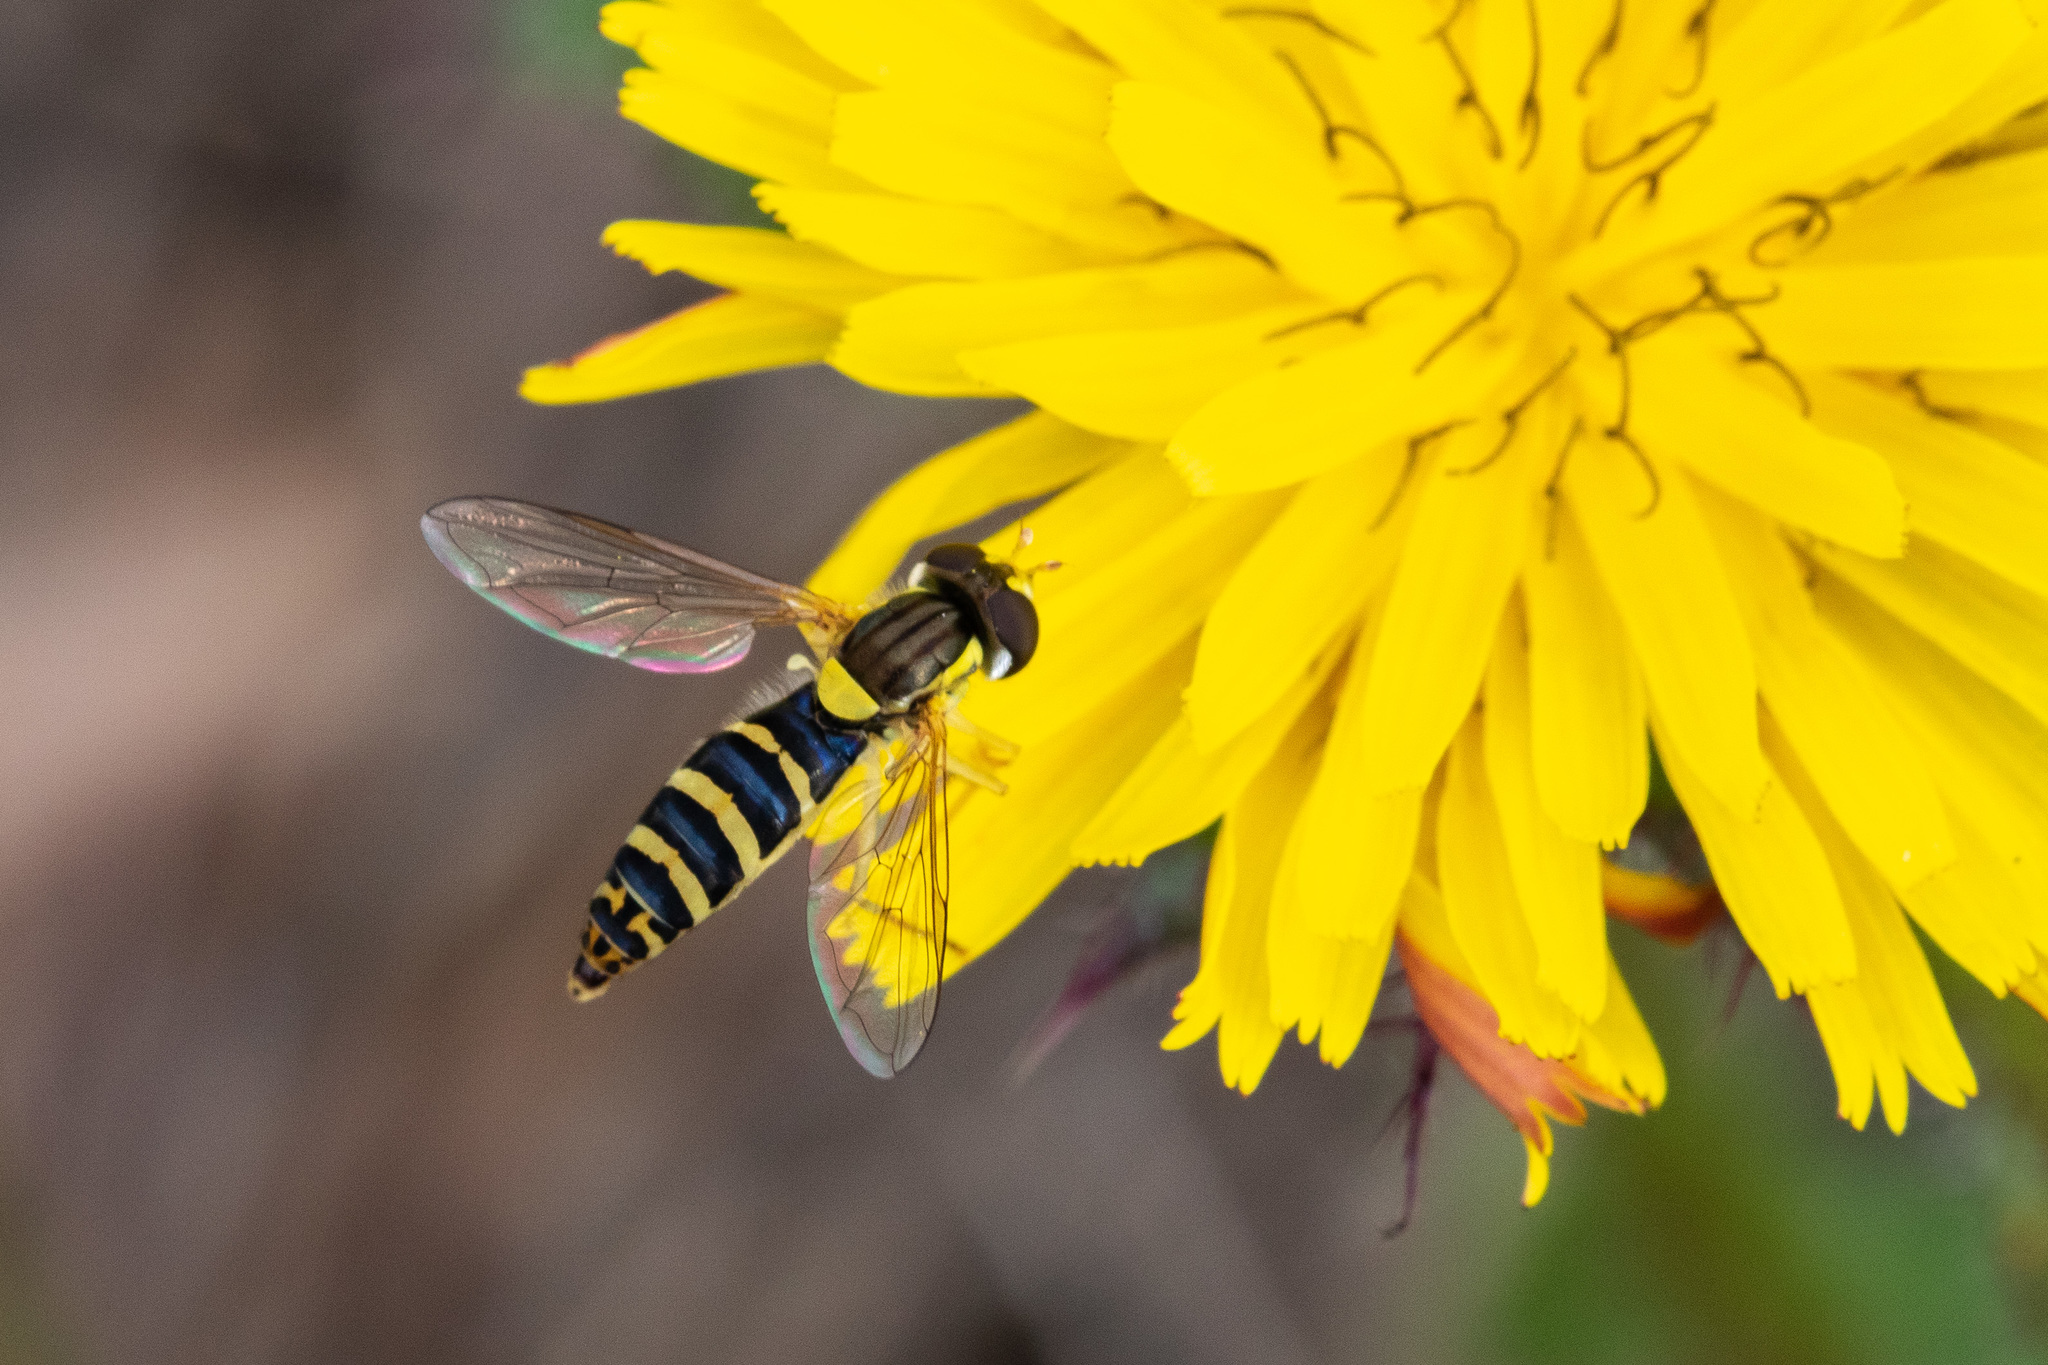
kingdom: Animalia
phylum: Arthropoda
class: Insecta
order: Diptera
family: Syrphidae
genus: Sphaerophoria
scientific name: Sphaerophoria
